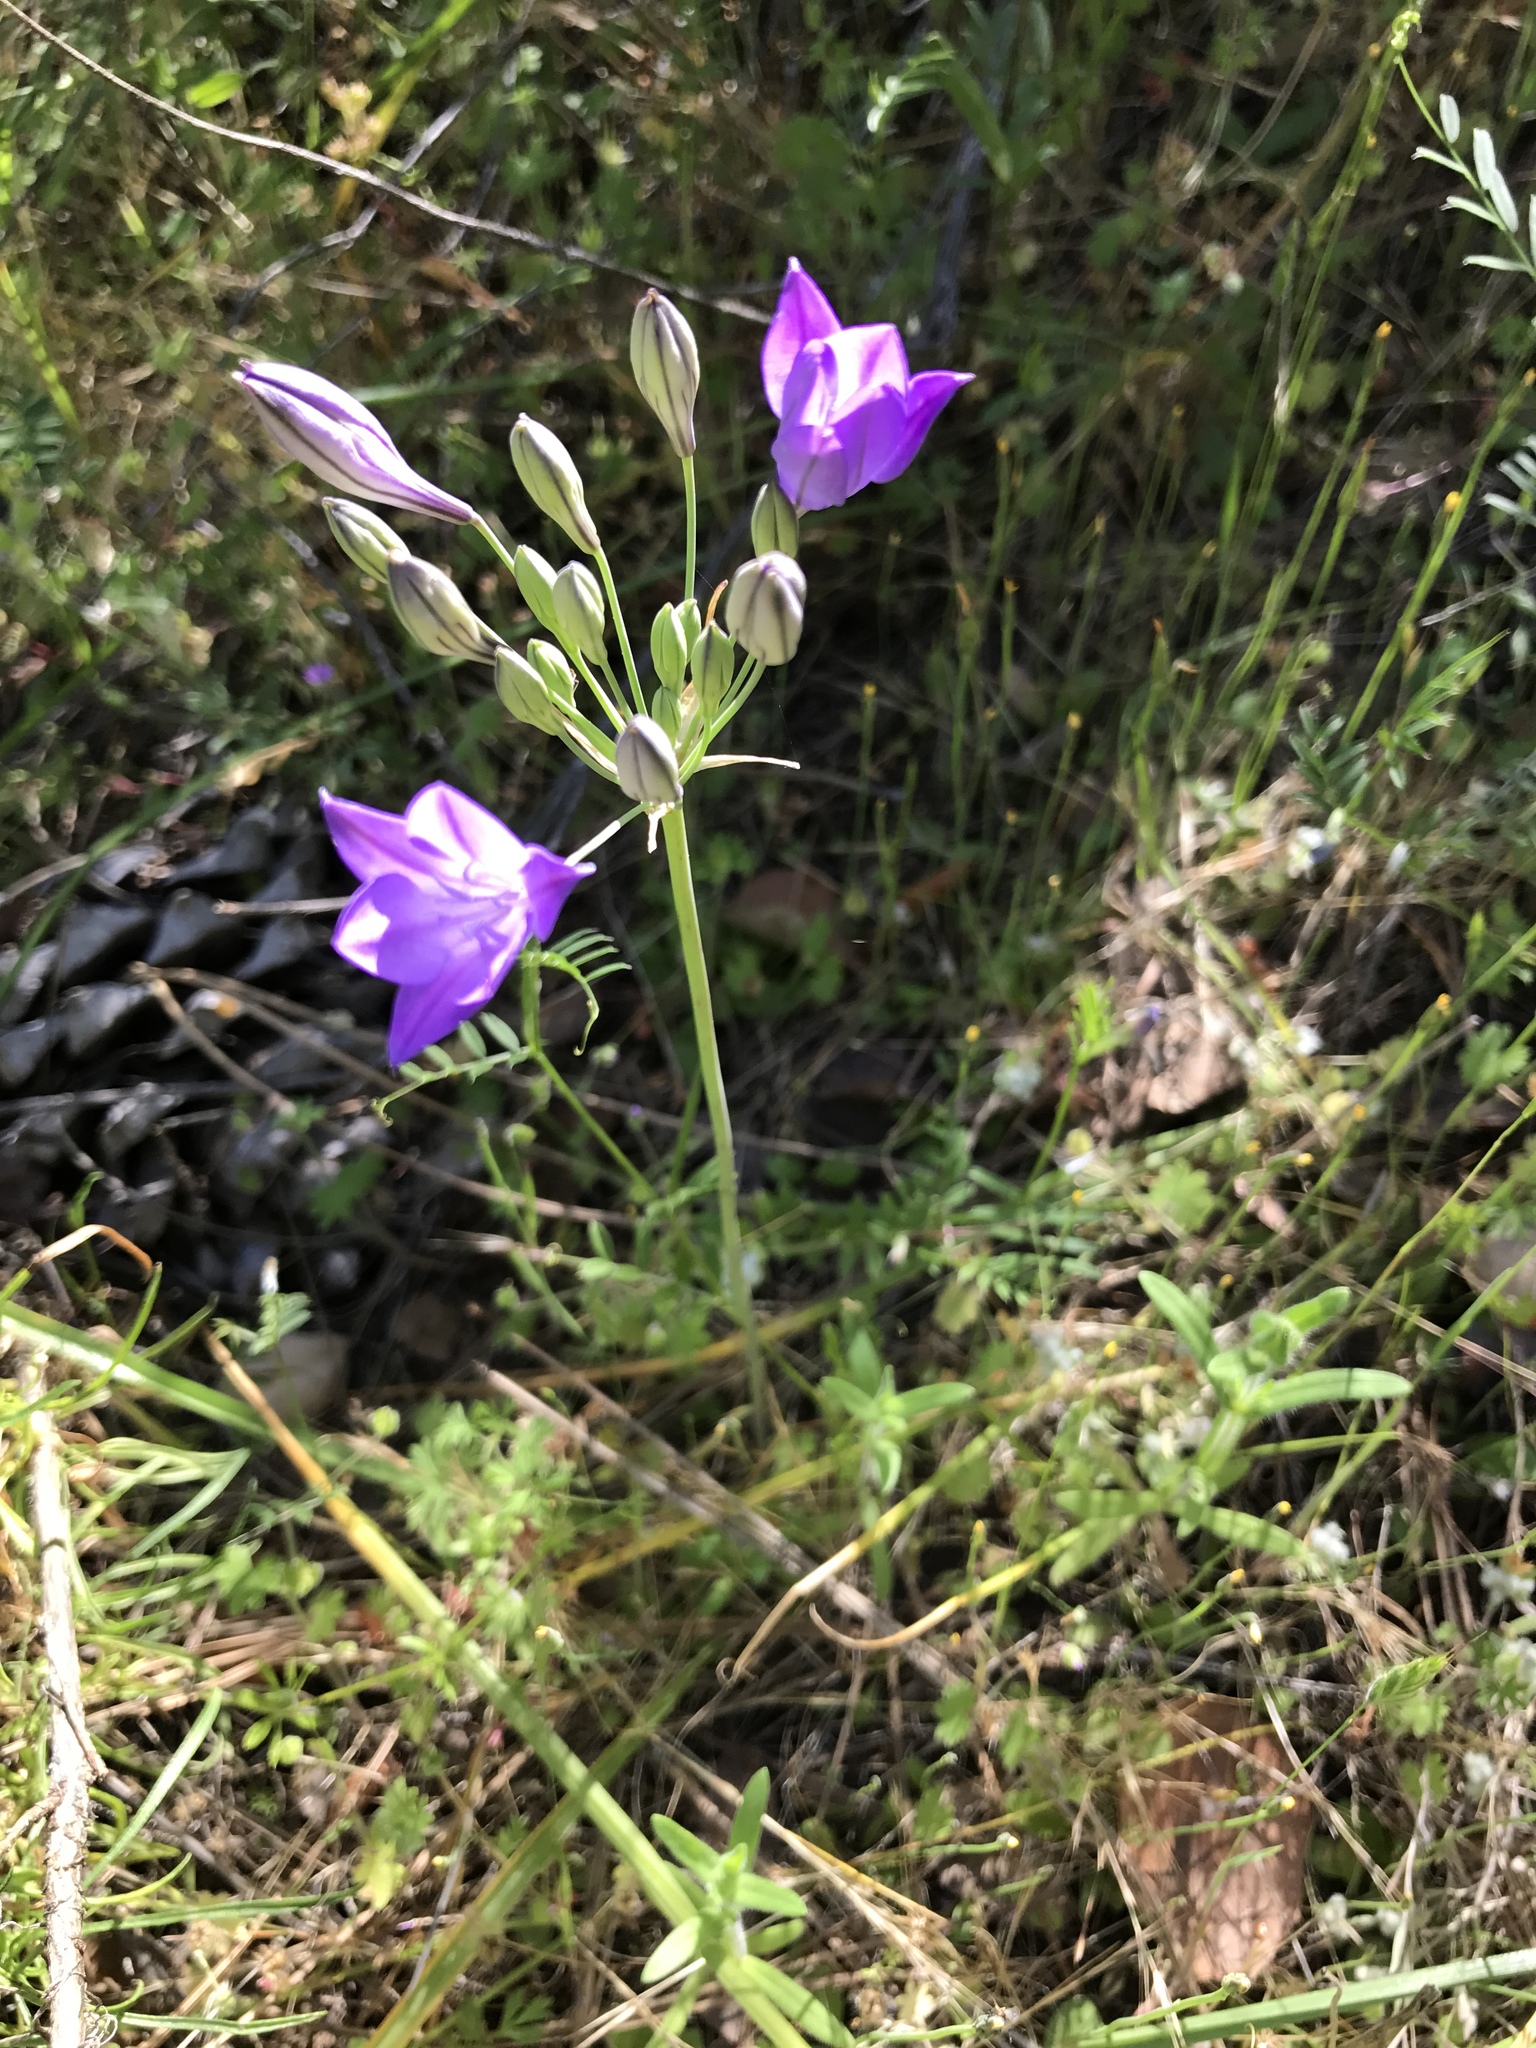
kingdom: Plantae
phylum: Tracheophyta
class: Liliopsida
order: Asparagales
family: Asparagaceae
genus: Triteleia
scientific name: Triteleia laxa
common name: Triplet-lily
